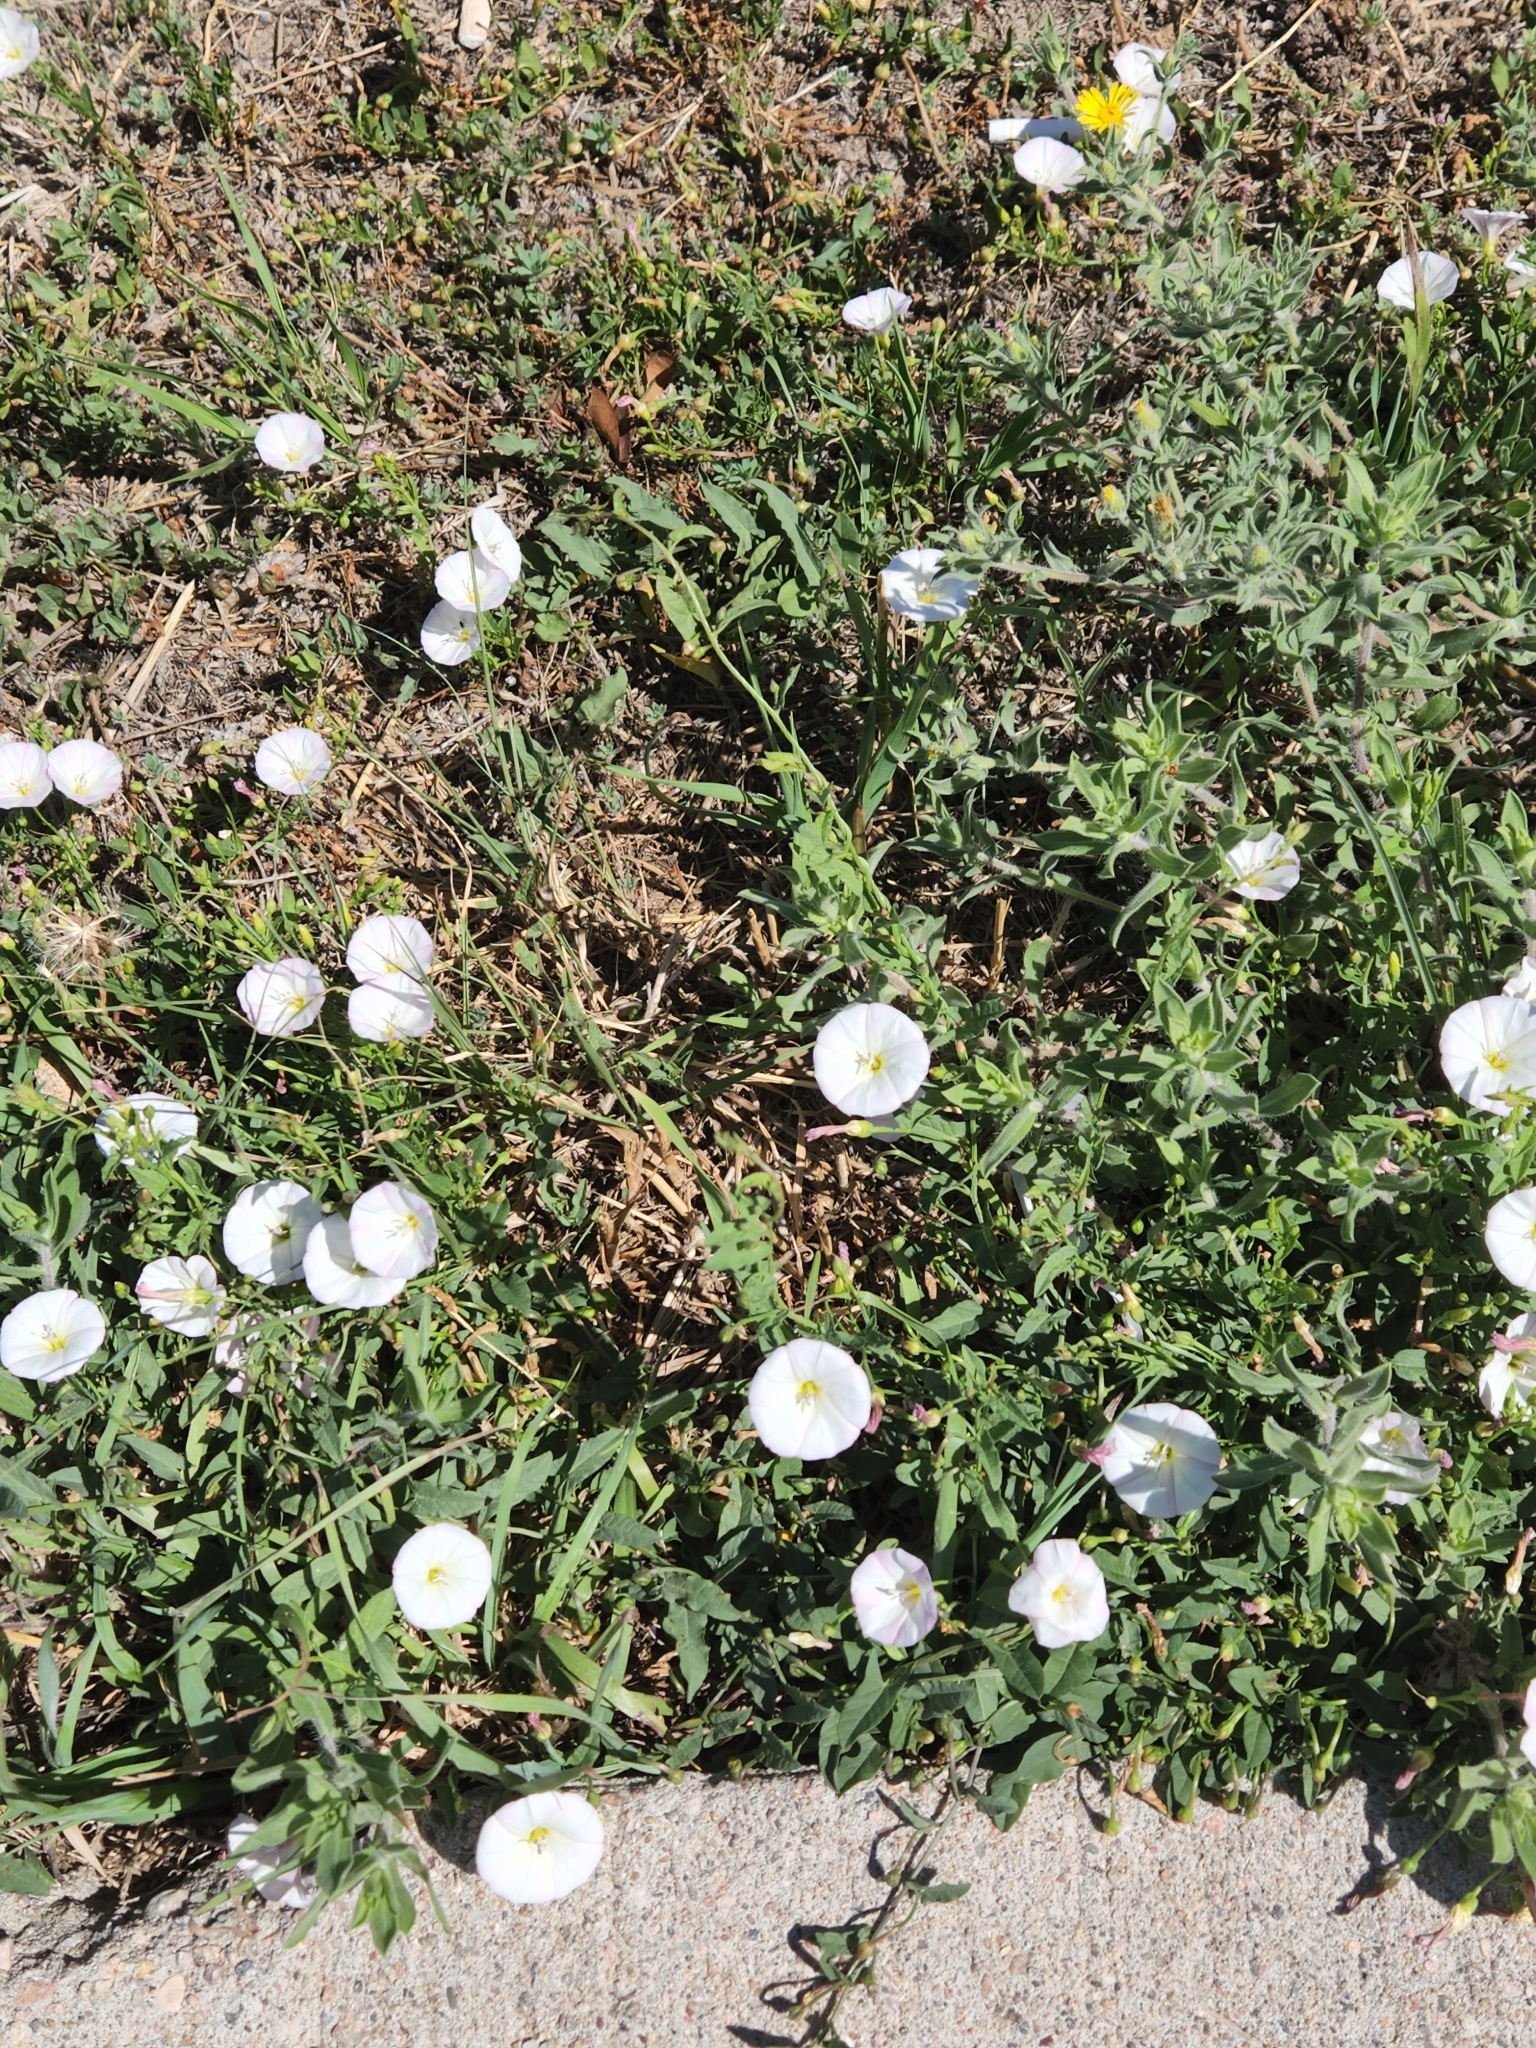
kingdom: Plantae
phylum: Tracheophyta
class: Magnoliopsida
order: Solanales
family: Convolvulaceae
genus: Convolvulus
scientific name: Convolvulus arvensis
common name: Field bindweed
